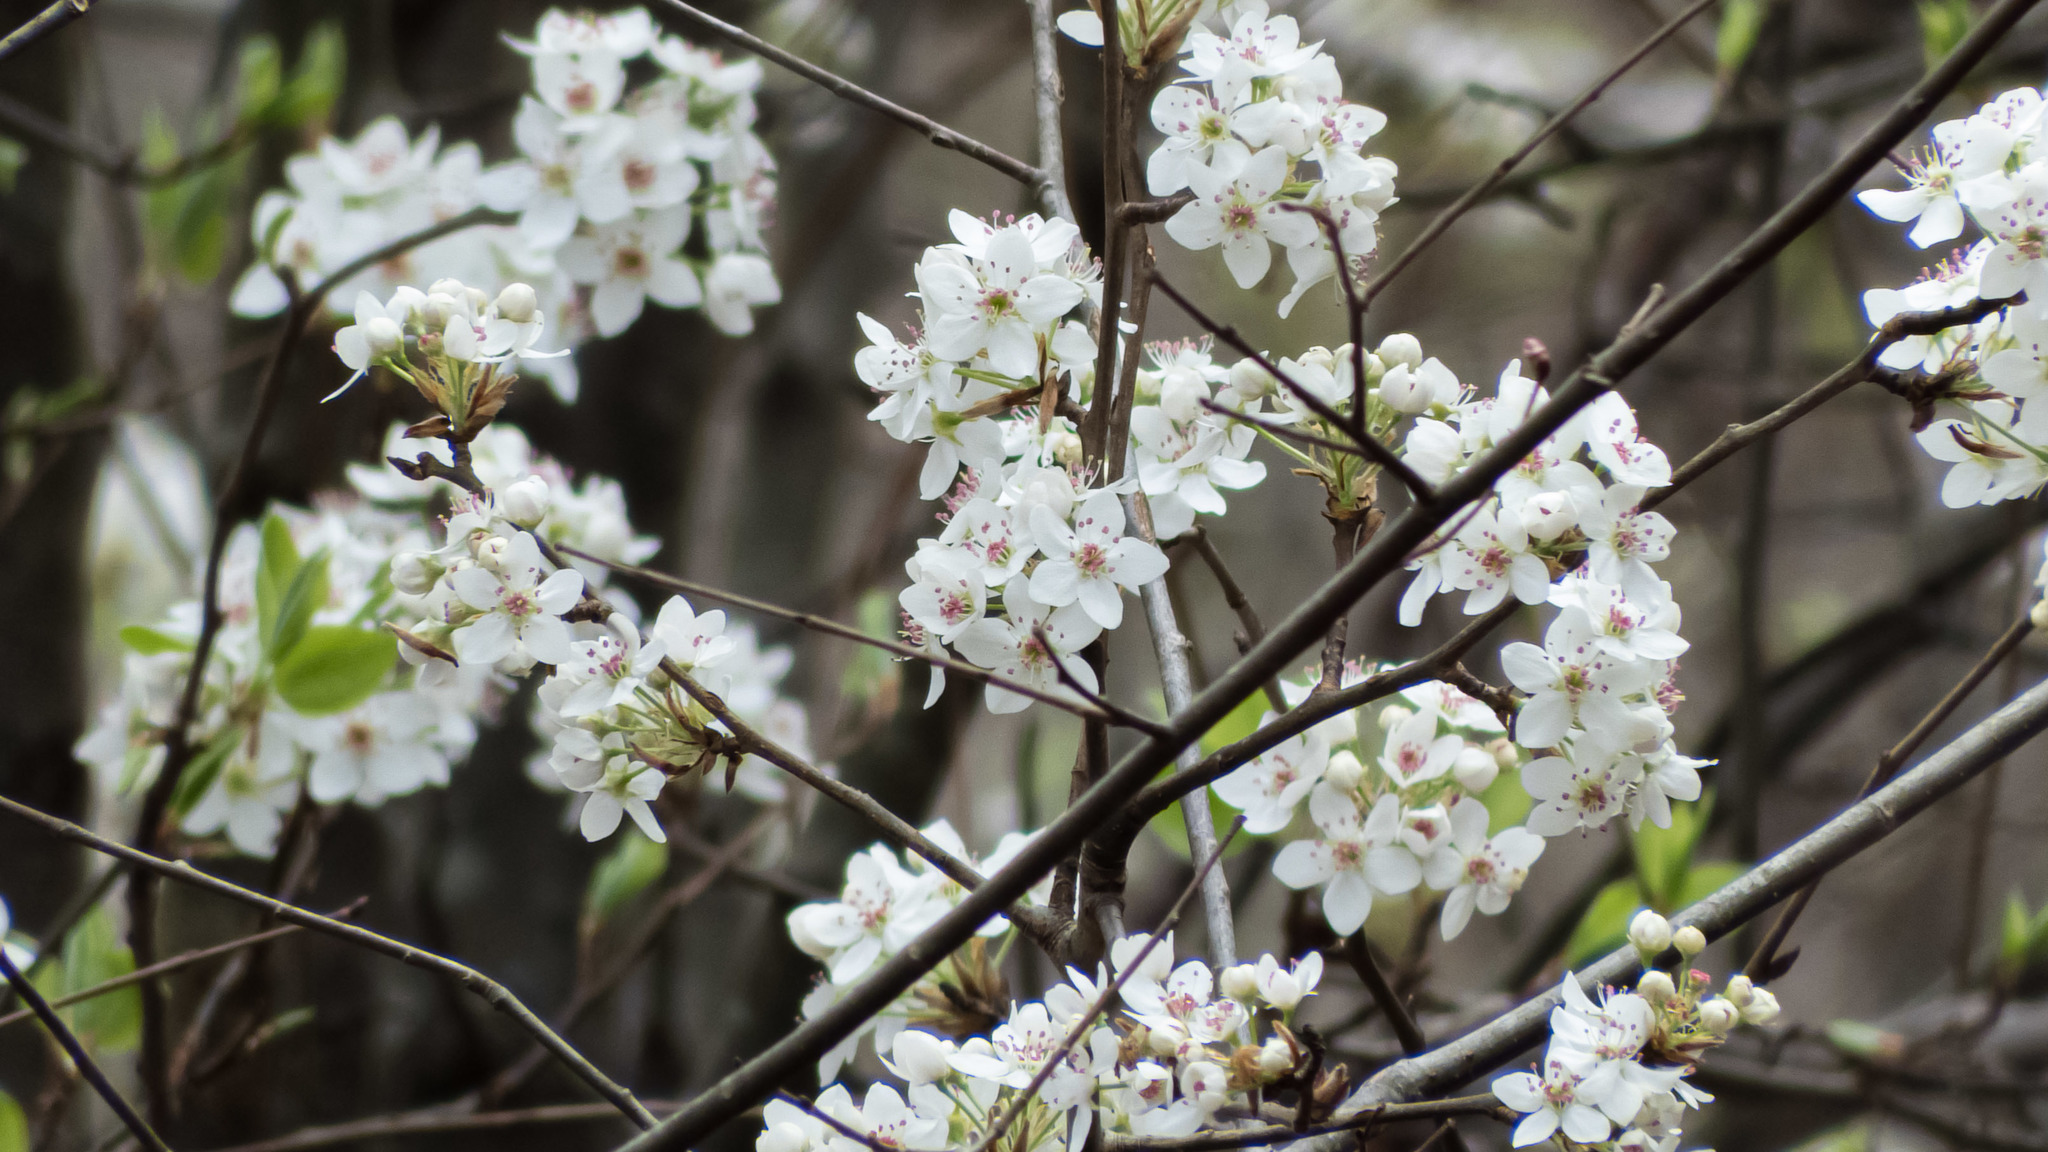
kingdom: Plantae
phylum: Tracheophyta
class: Magnoliopsida
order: Rosales
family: Rosaceae
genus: Pyrus
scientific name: Pyrus calleryana
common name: Callery pear
